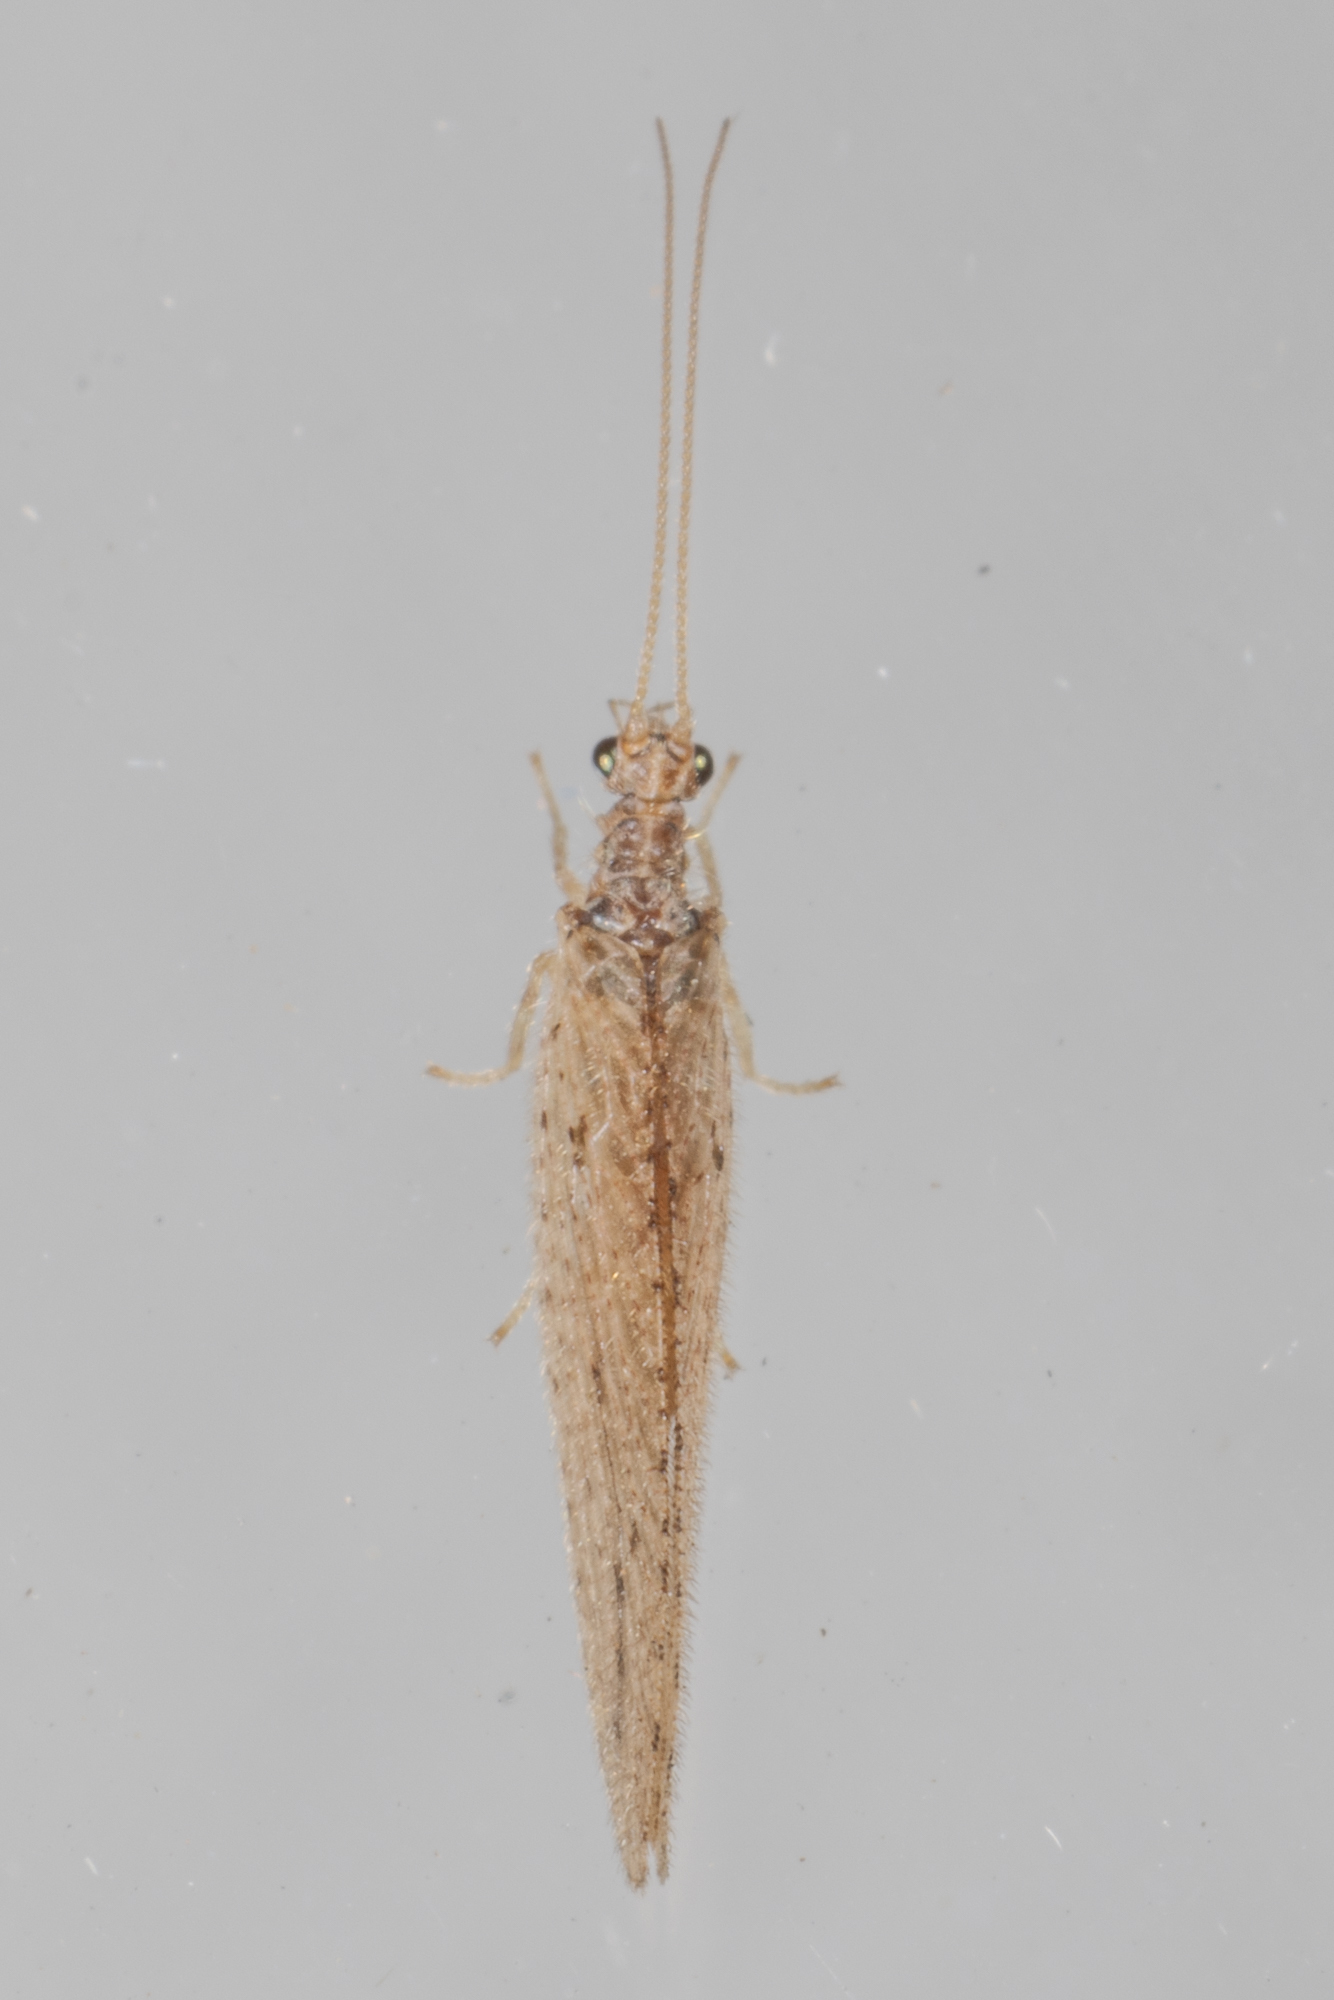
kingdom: Animalia
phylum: Arthropoda
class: Insecta
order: Neuroptera
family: Hemerobiidae
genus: Micromus
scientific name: Micromus subanticus
